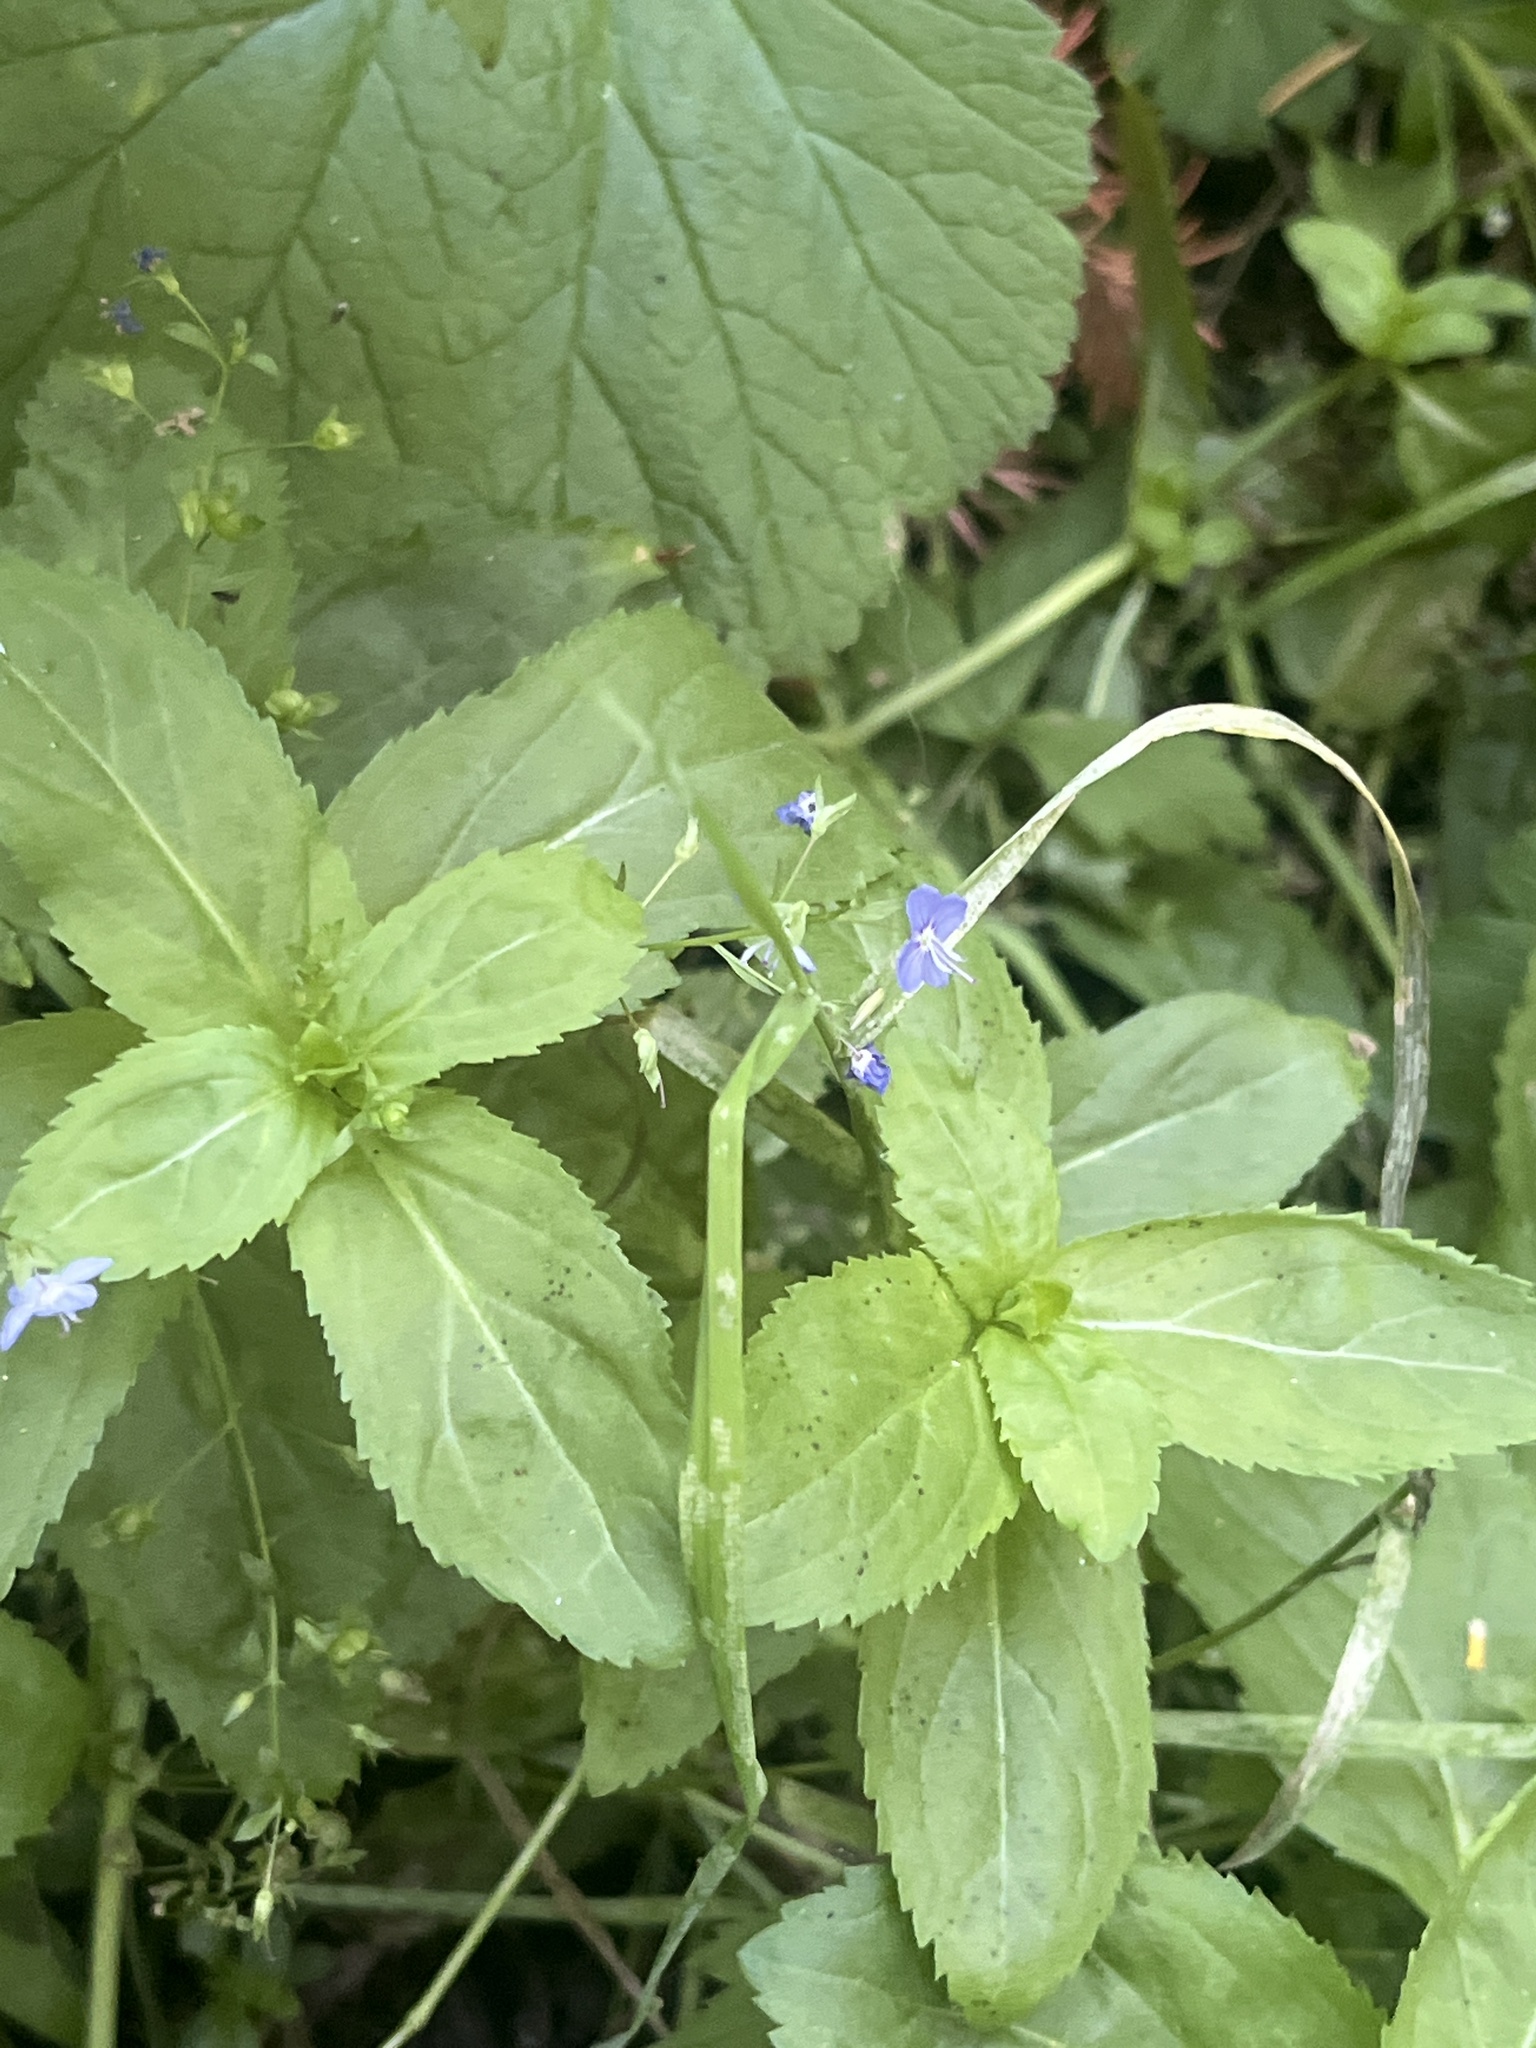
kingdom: Plantae
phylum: Tracheophyta
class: Magnoliopsida
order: Lamiales
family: Plantaginaceae
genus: Veronica
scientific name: Veronica americana
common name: American brooklime
